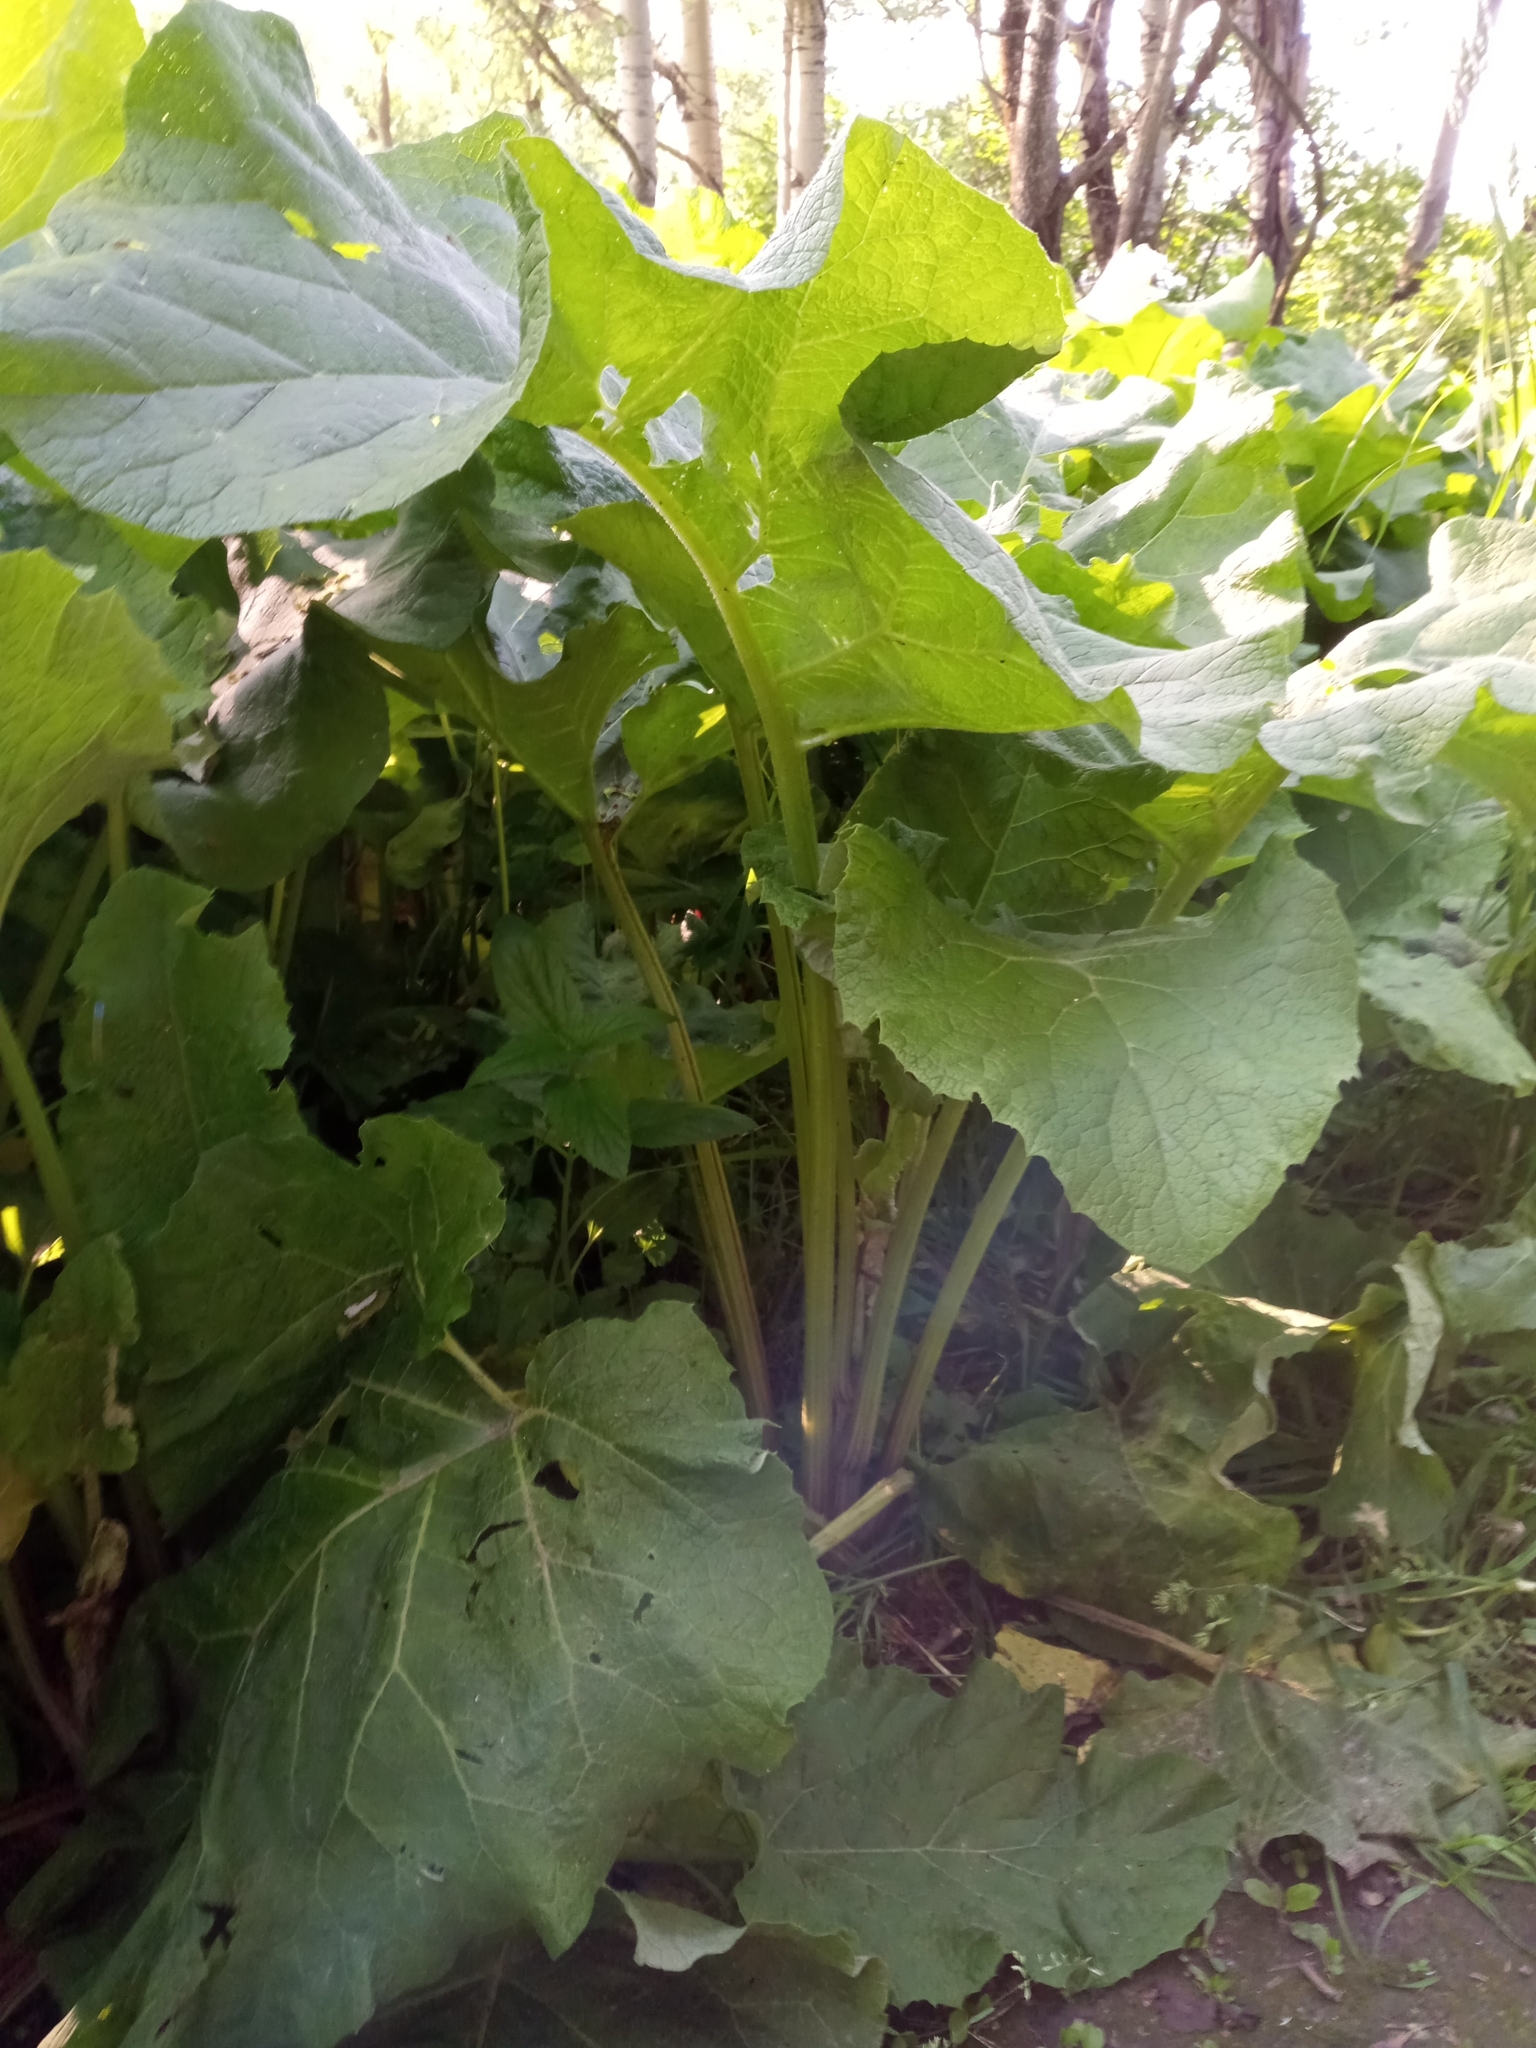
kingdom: Plantae
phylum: Tracheophyta
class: Magnoliopsida
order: Asterales
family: Asteraceae
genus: Arctium
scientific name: Arctium
